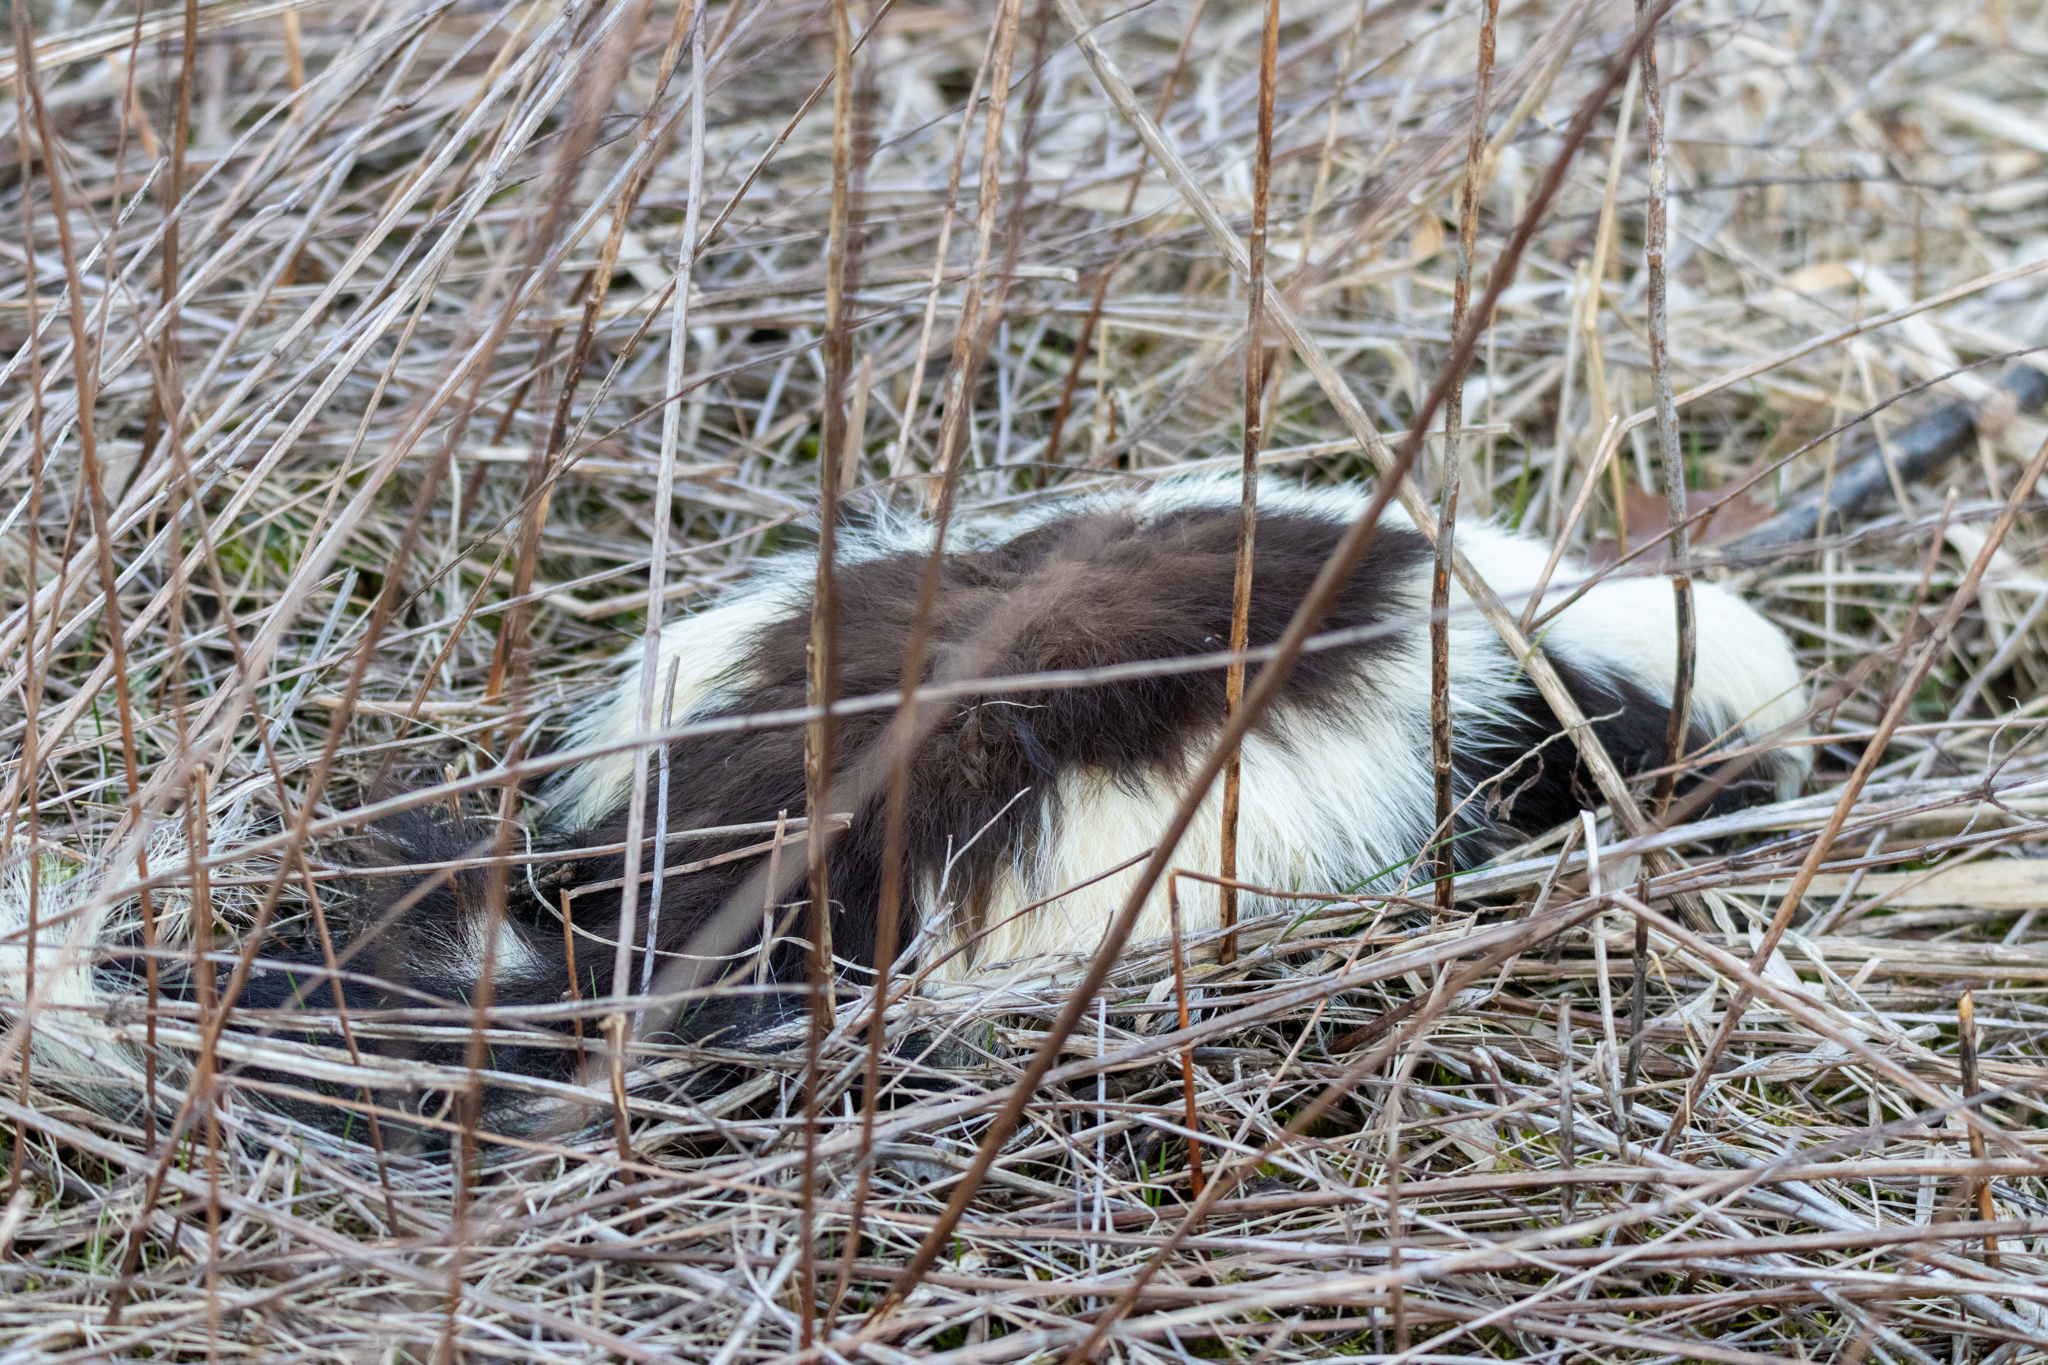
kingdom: Animalia
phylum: Chordata
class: Mammalia
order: Carnivora
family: Mephitidae
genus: Mephitis
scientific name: Mephitis mephitis
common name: Striped skunk
